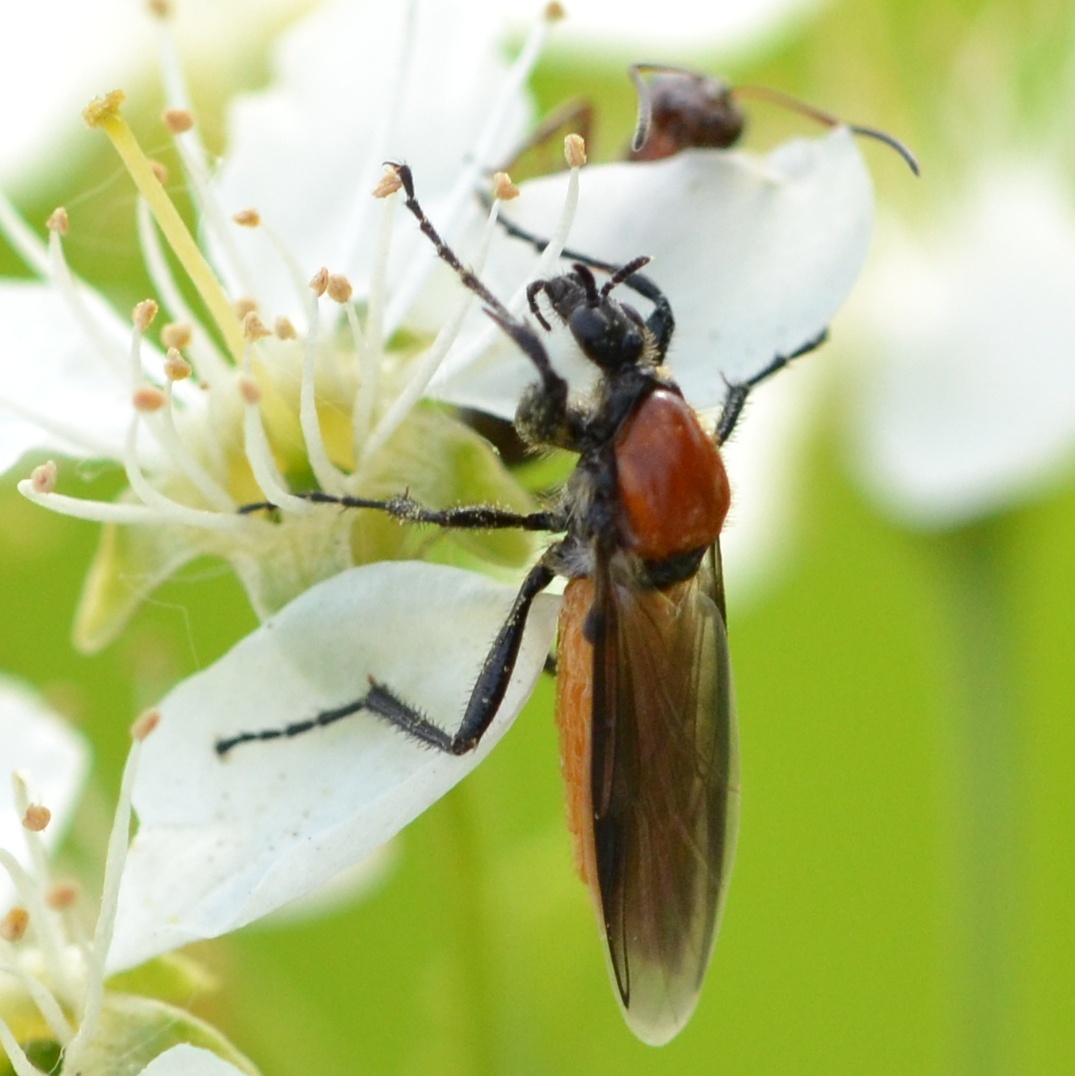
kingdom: Animalia
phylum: Arthropoda
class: Insecta
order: Diptera
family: Bibionidae
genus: Bibio
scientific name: Bibio hortulanus
